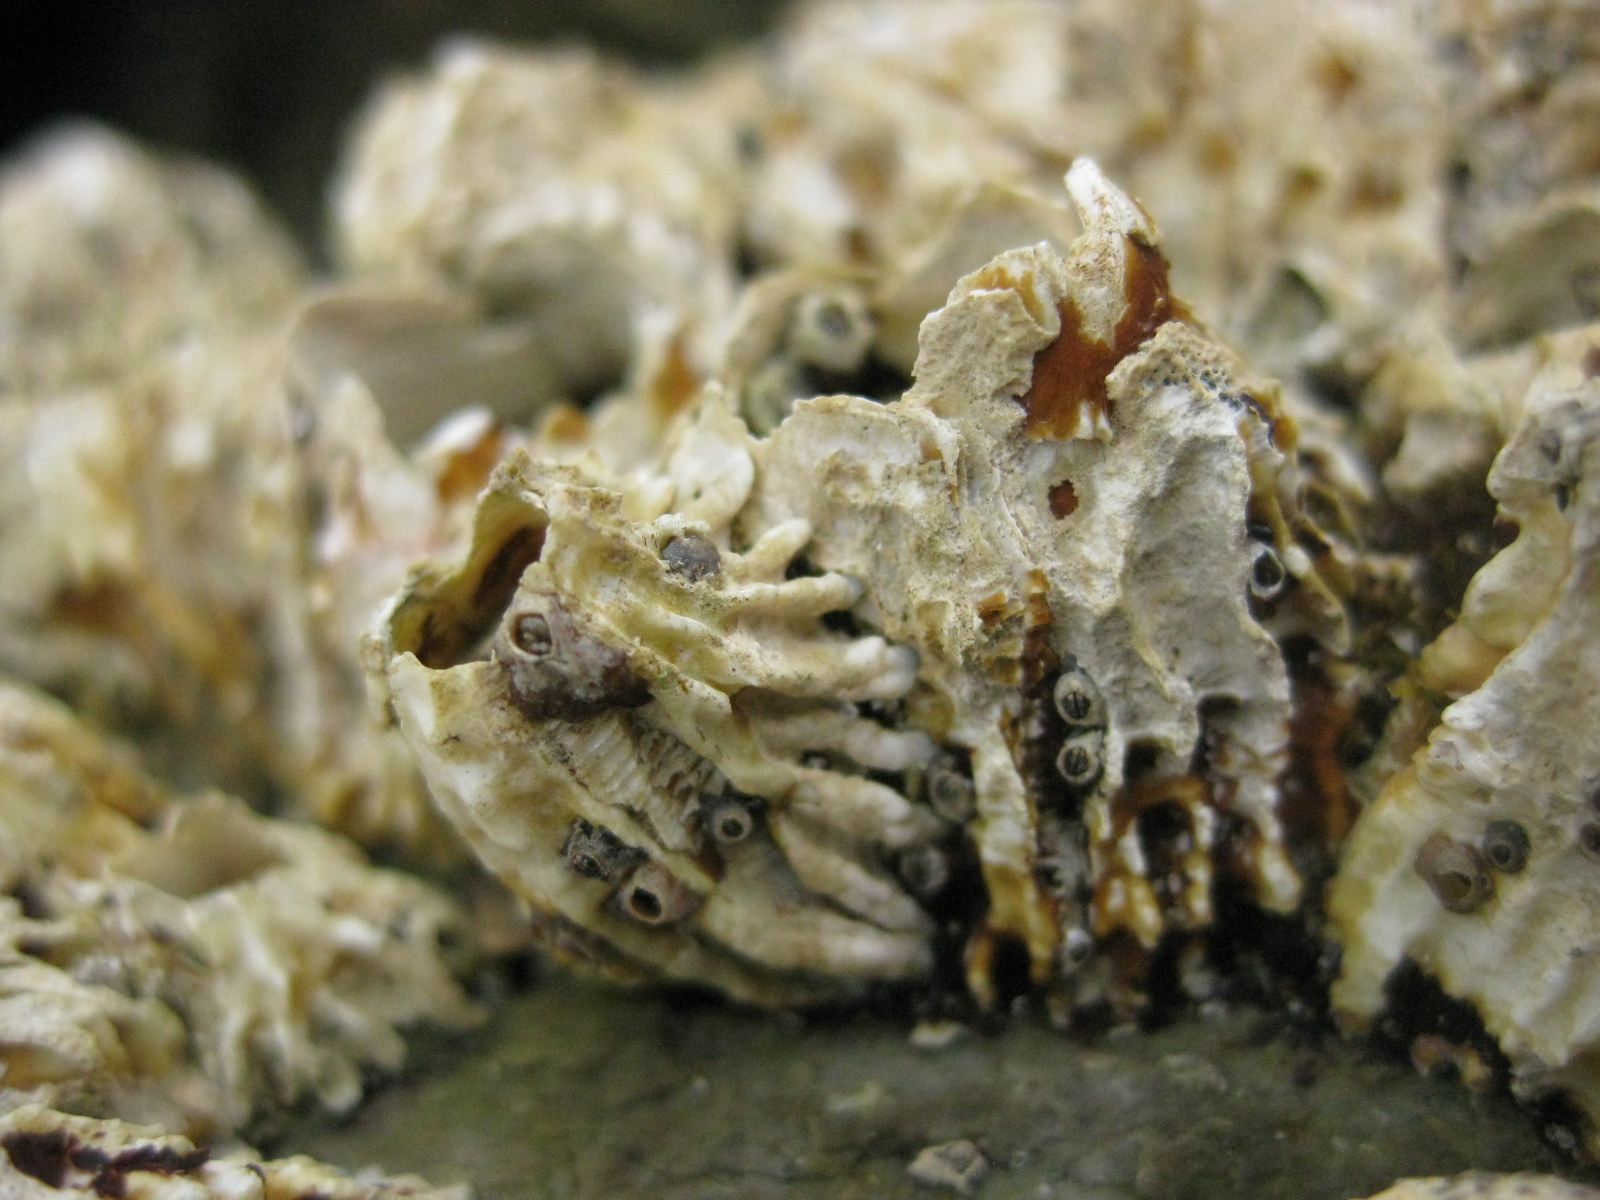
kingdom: Animalia
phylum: Arthropoda
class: Maxillopoda
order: Sessilia
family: Tetraclitidae
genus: Epopella
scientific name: Epopella plicata
